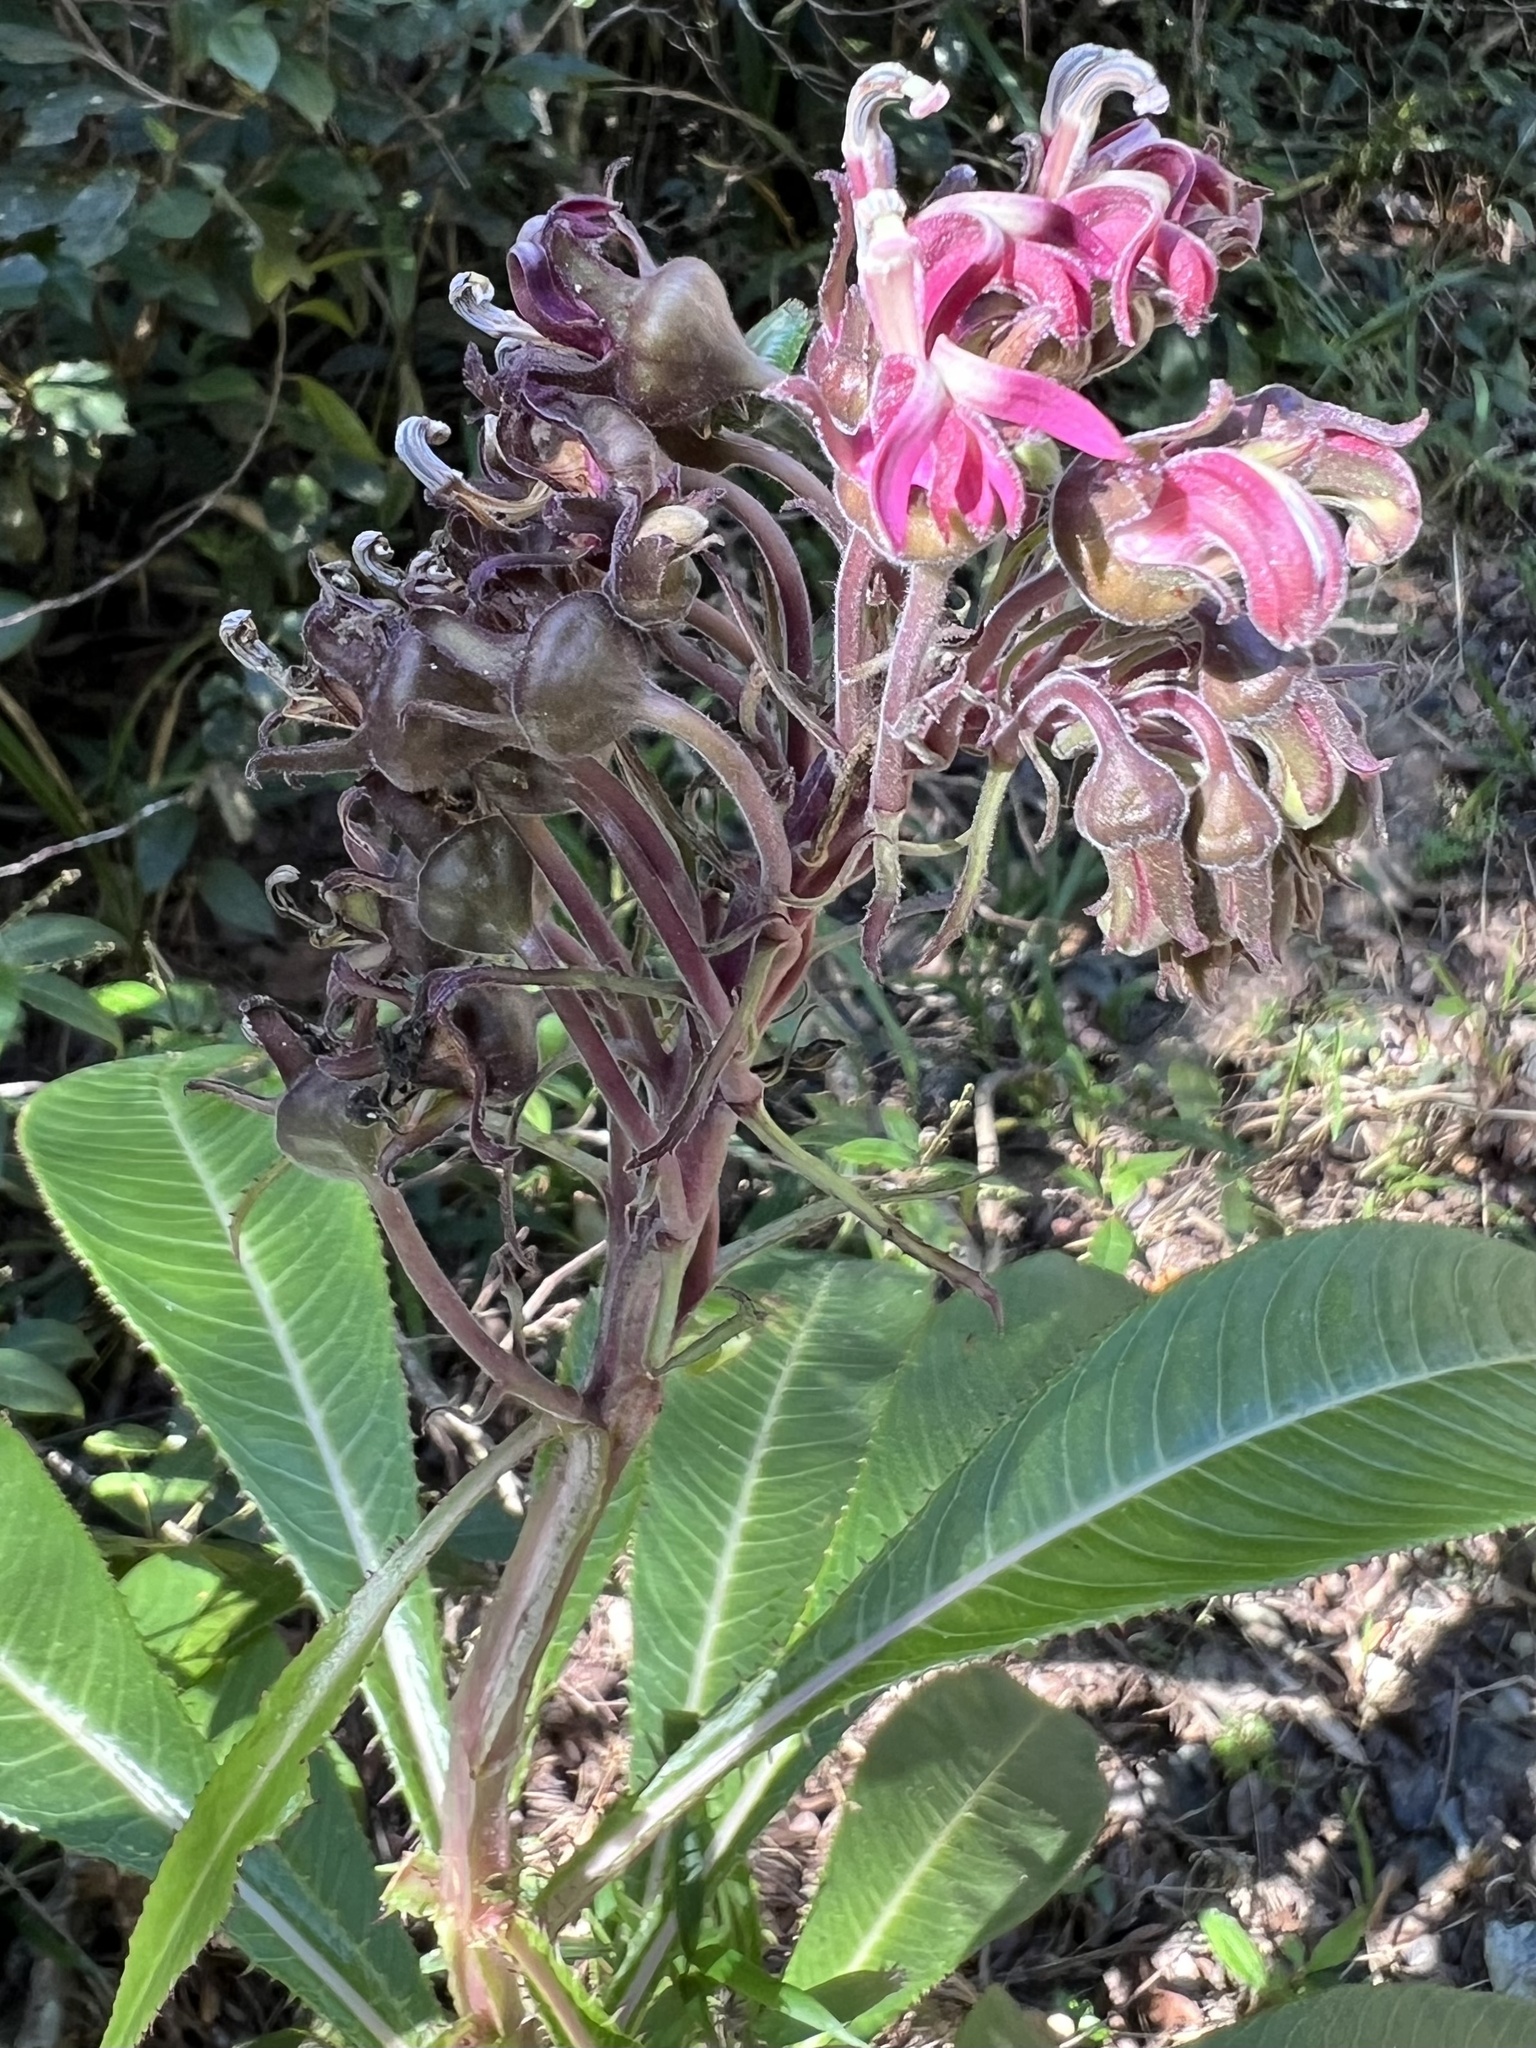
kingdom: Plantae
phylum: Tracheophyta
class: Magnoliopsida
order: Asterales
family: Campanulaceae
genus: Lobelia
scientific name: Lobelia robusta
